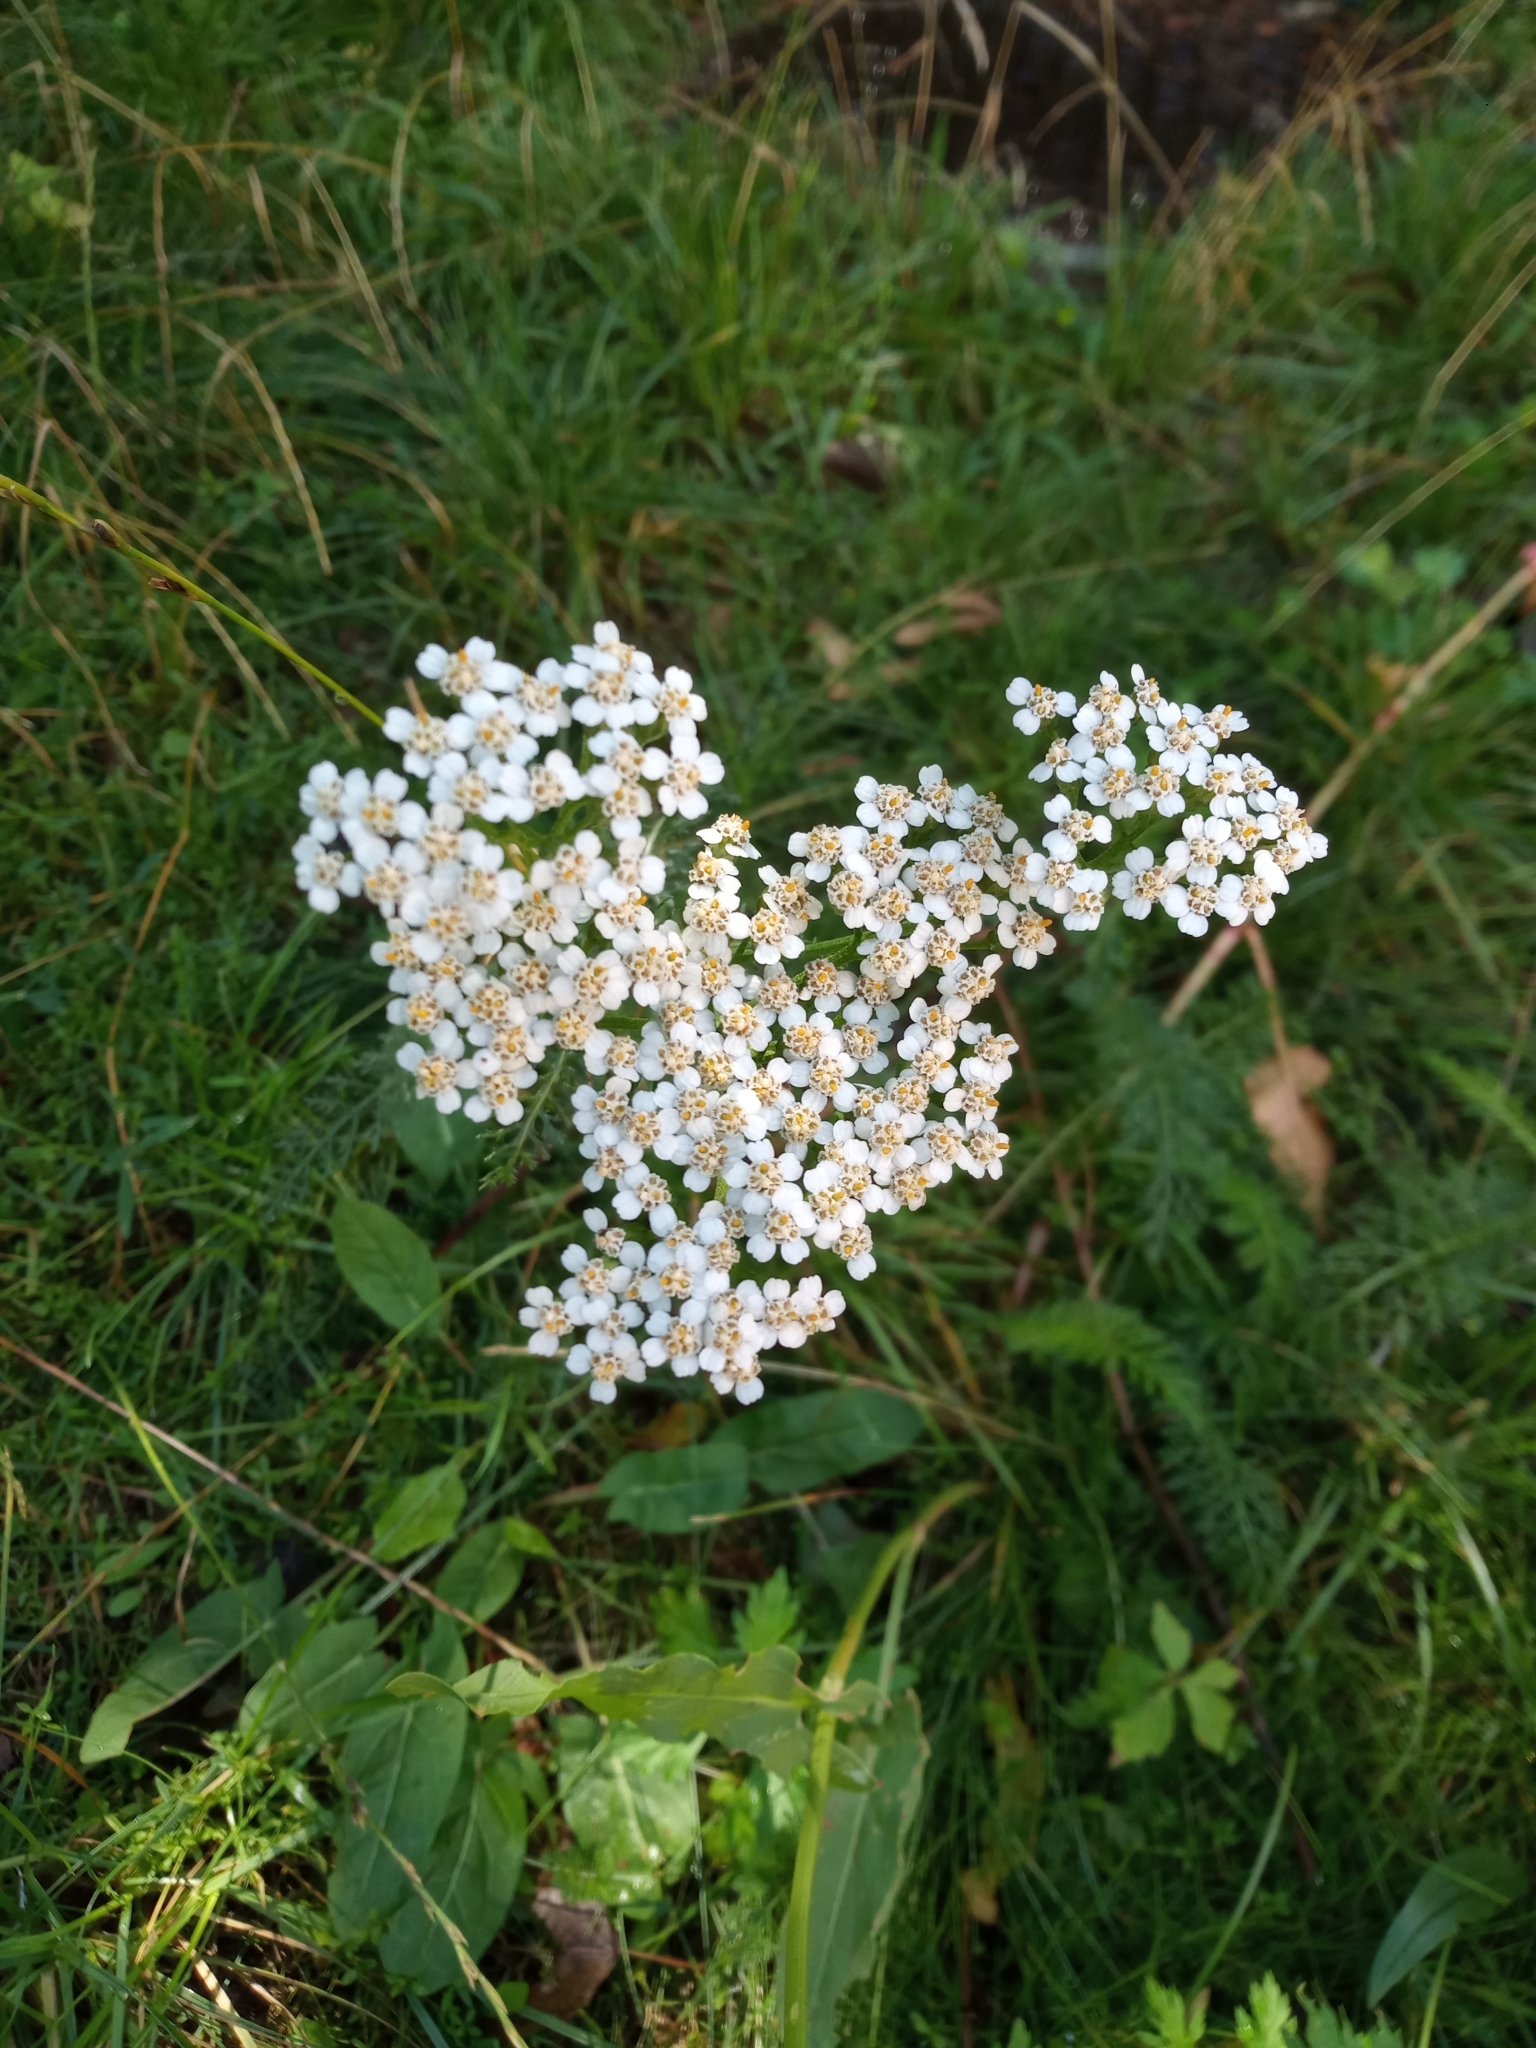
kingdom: Plantae
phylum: Tracheophyta
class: Magnoliopsida
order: Asterales
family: Asteraceae
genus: Achillea
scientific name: Achillea millefolium
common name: Yarrow
